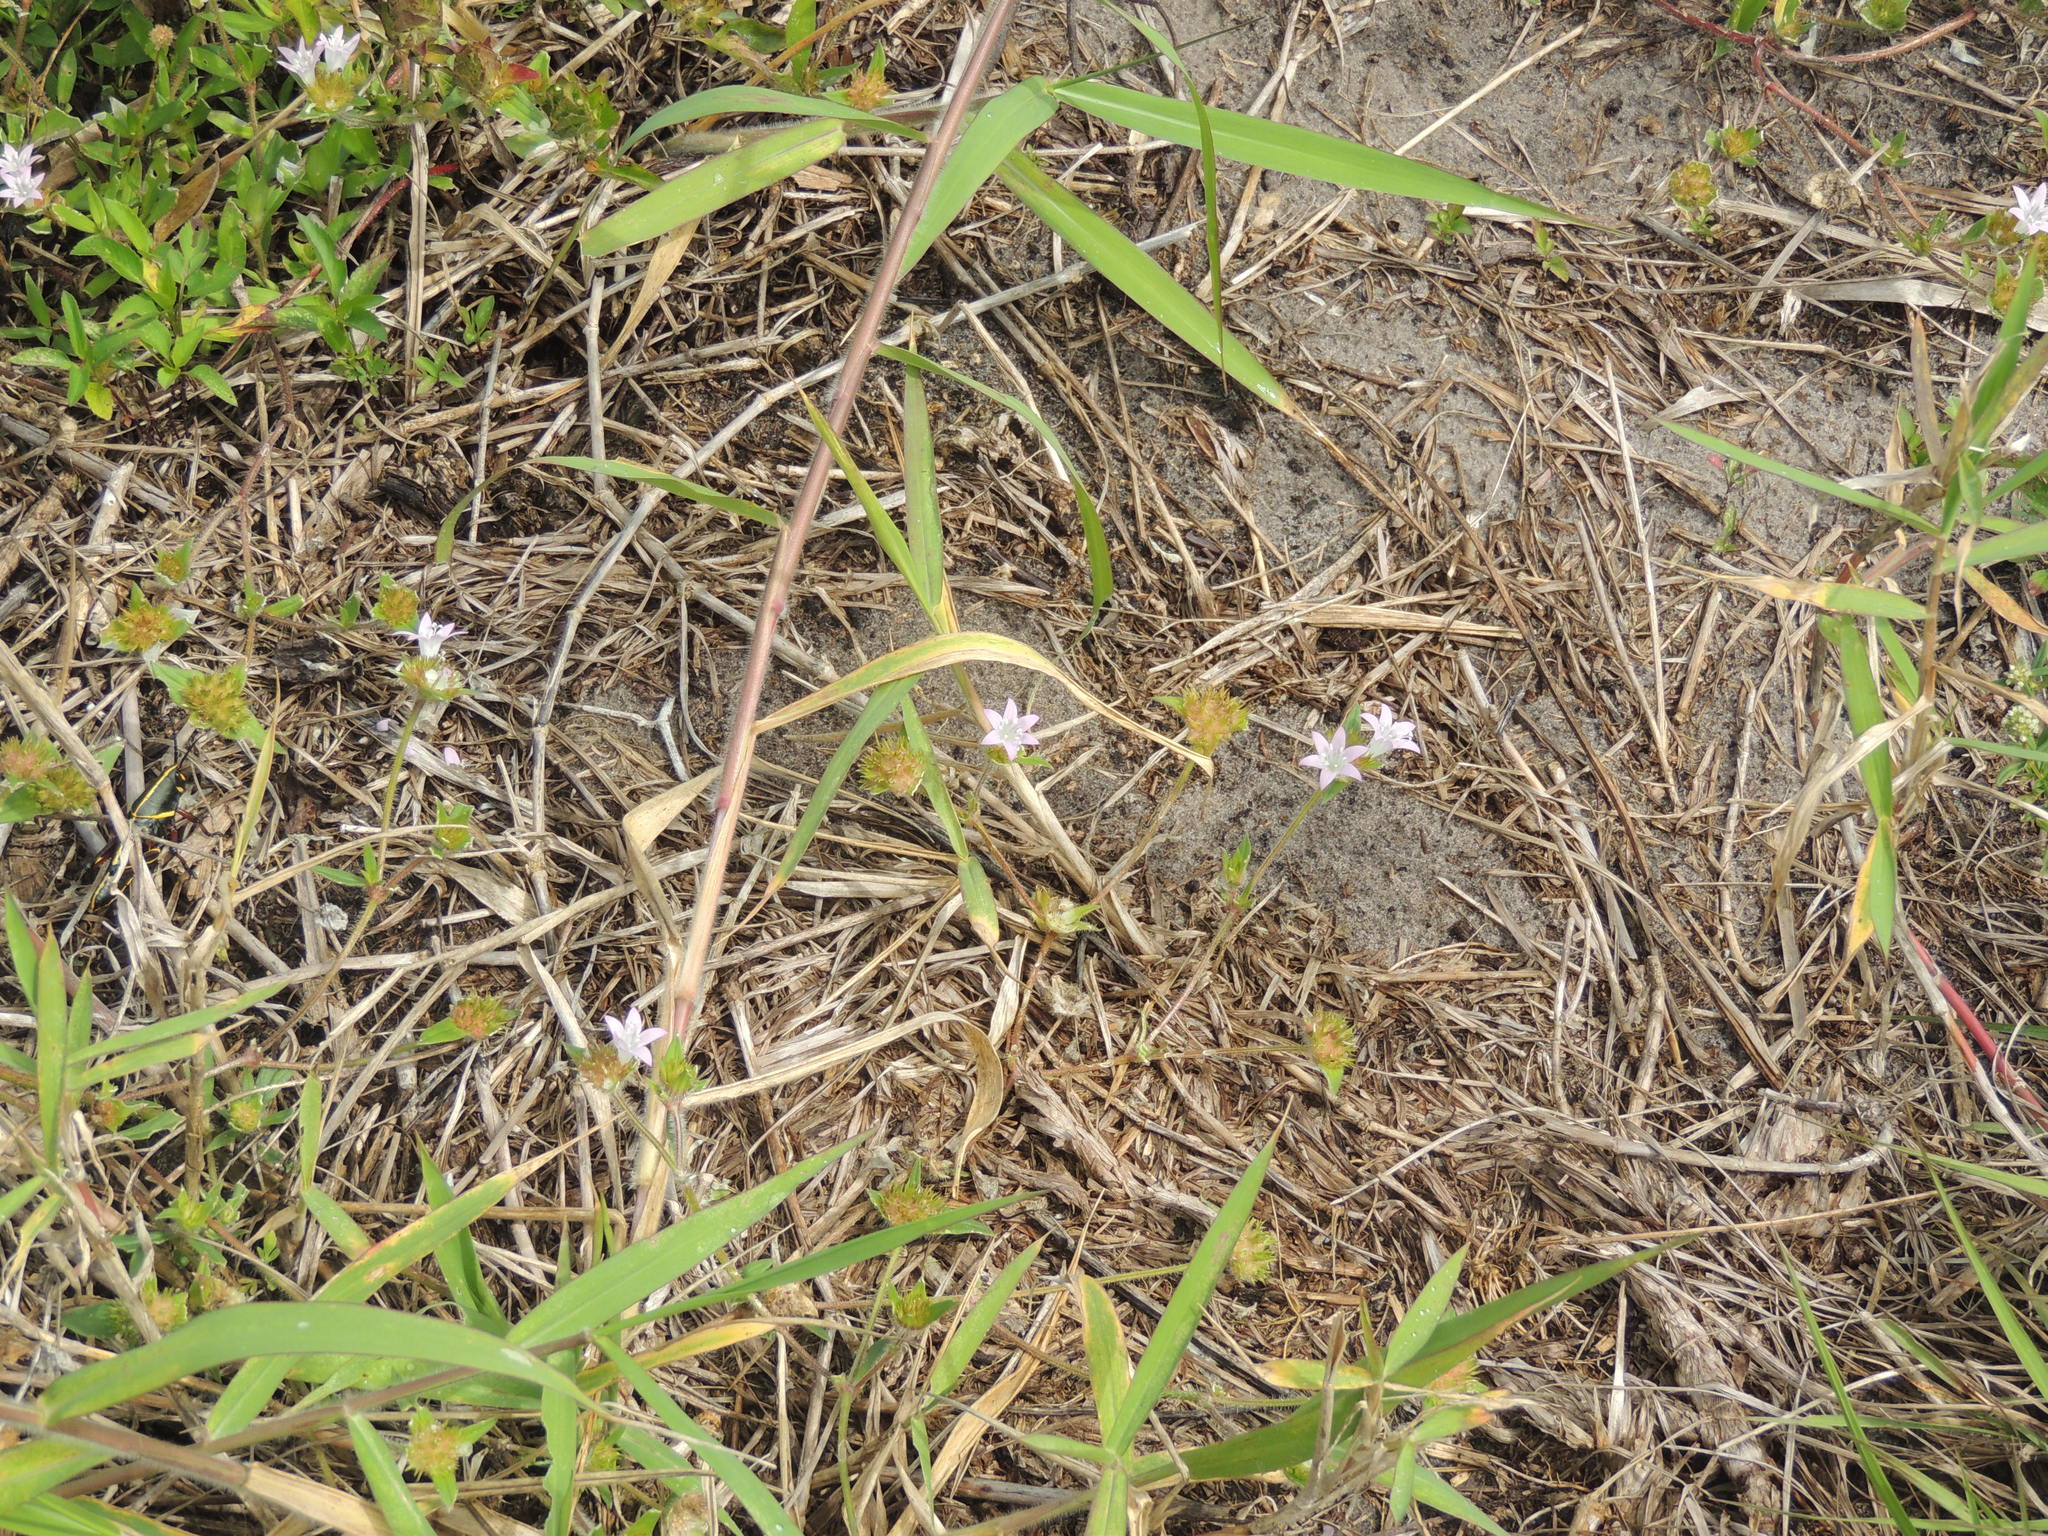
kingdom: Plantae
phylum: Tracheophyta
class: Magnoliopsida
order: Gentianales
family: Rubiaceae
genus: Richardia
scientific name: Richardia grandiflora
